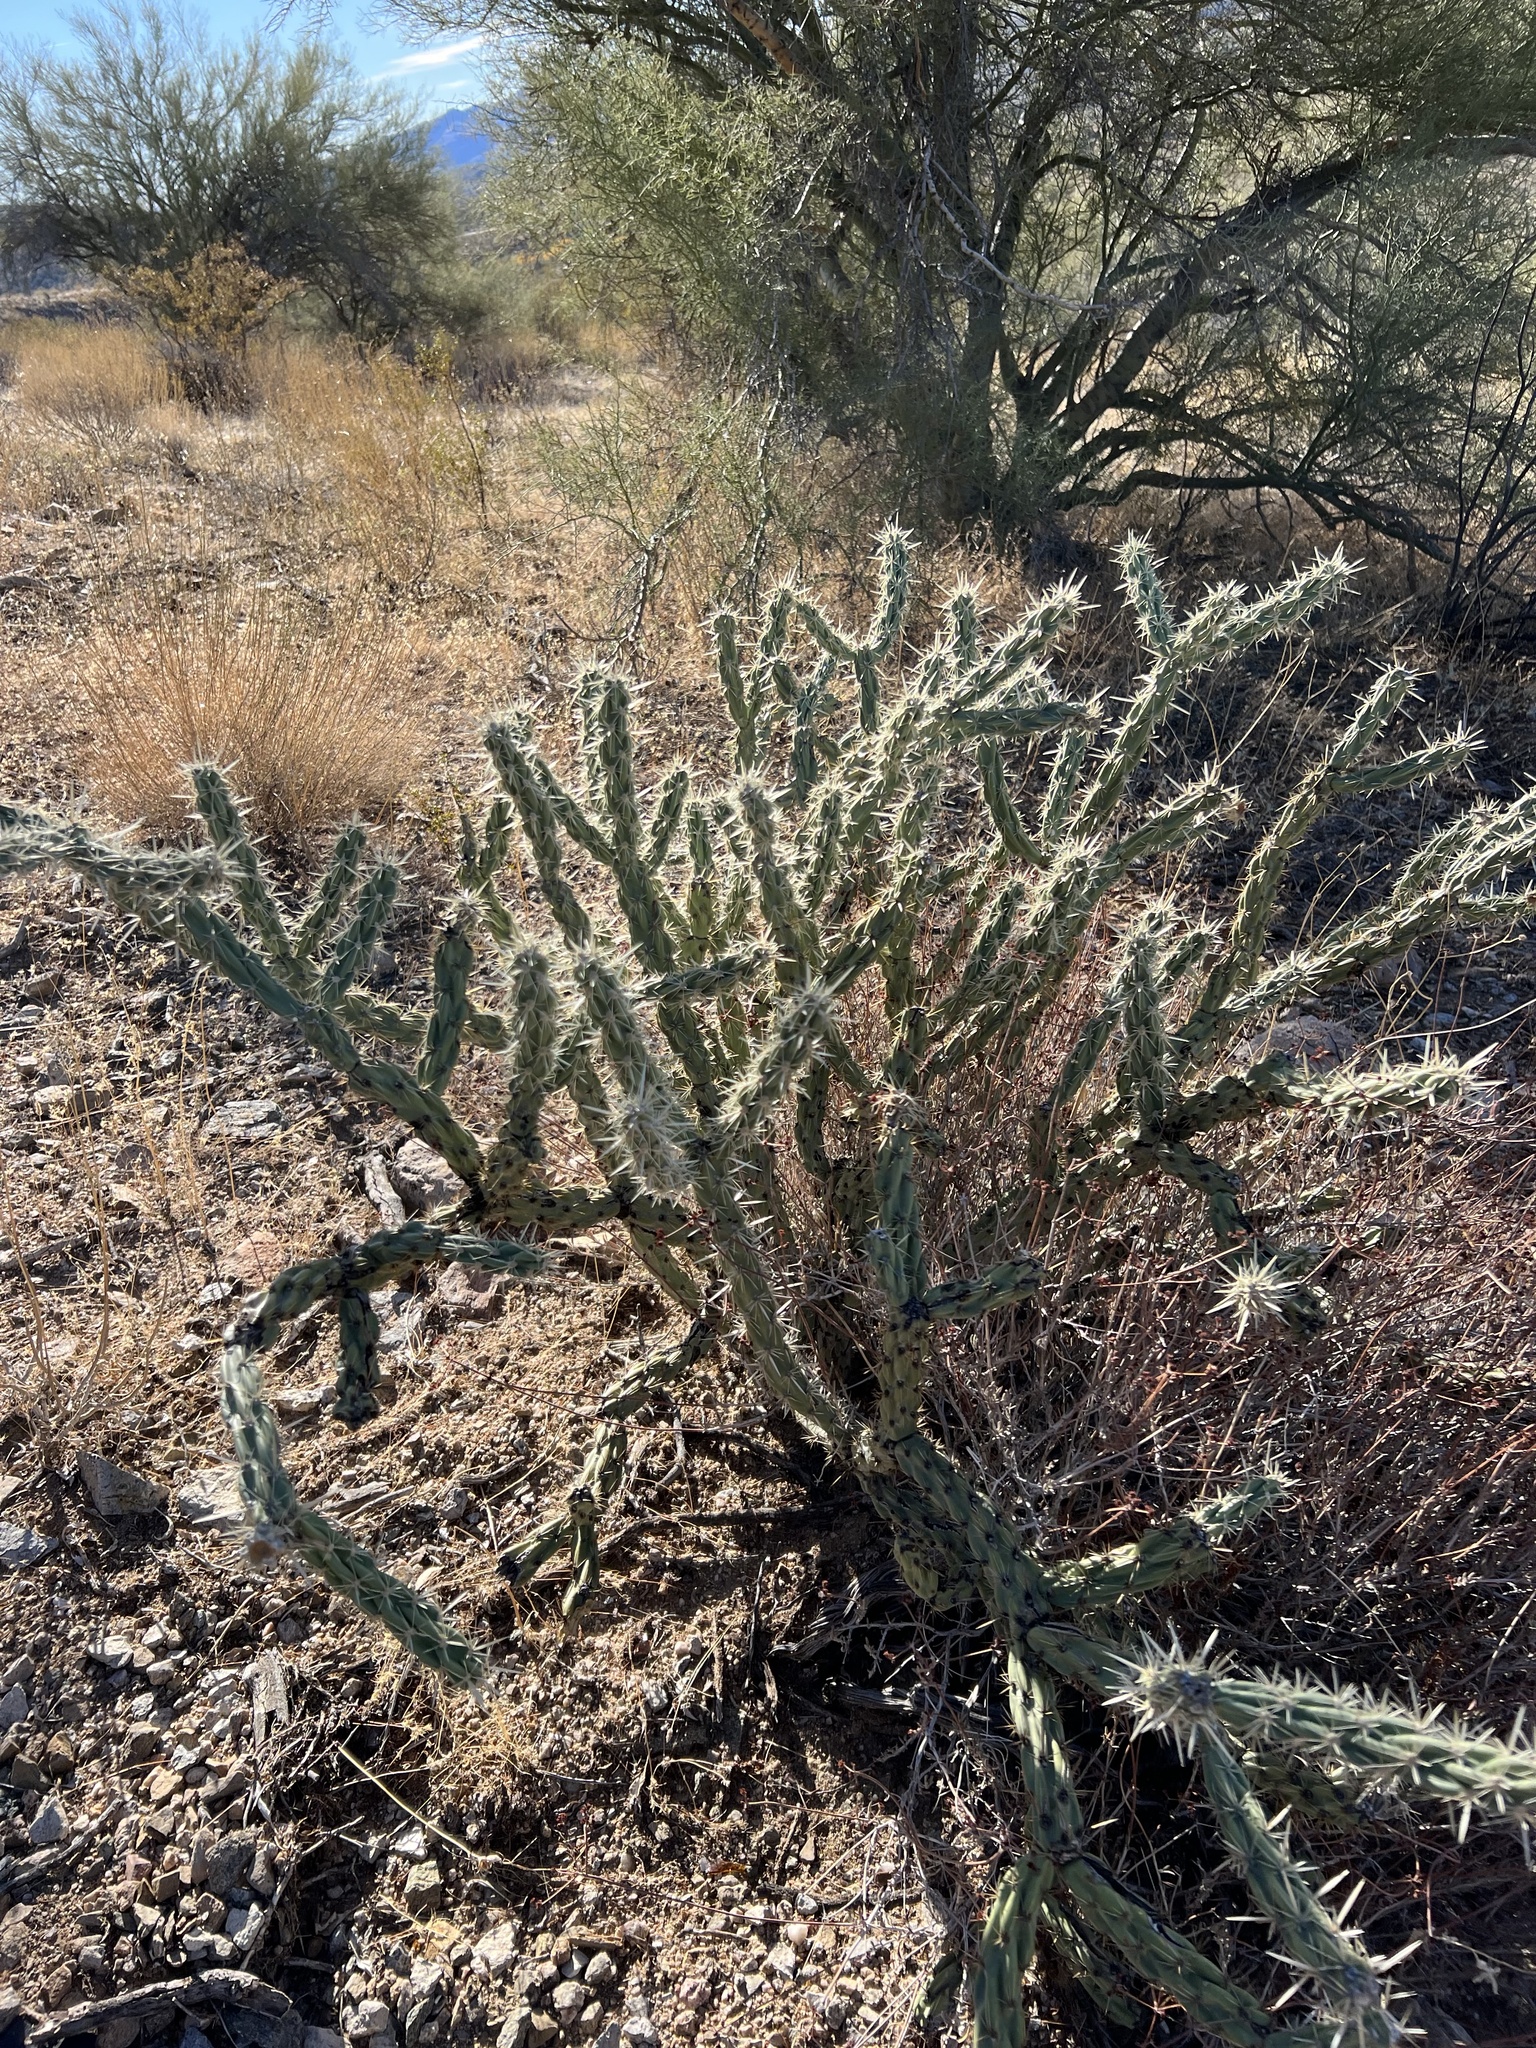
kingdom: Plantae
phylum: Tracheophyta
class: Magnoliopsida
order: Caryophyllales
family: Cactaceae
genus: Cylindropuntia
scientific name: Cylindropuntia acanthocarpa
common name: Buckhorn cholla
